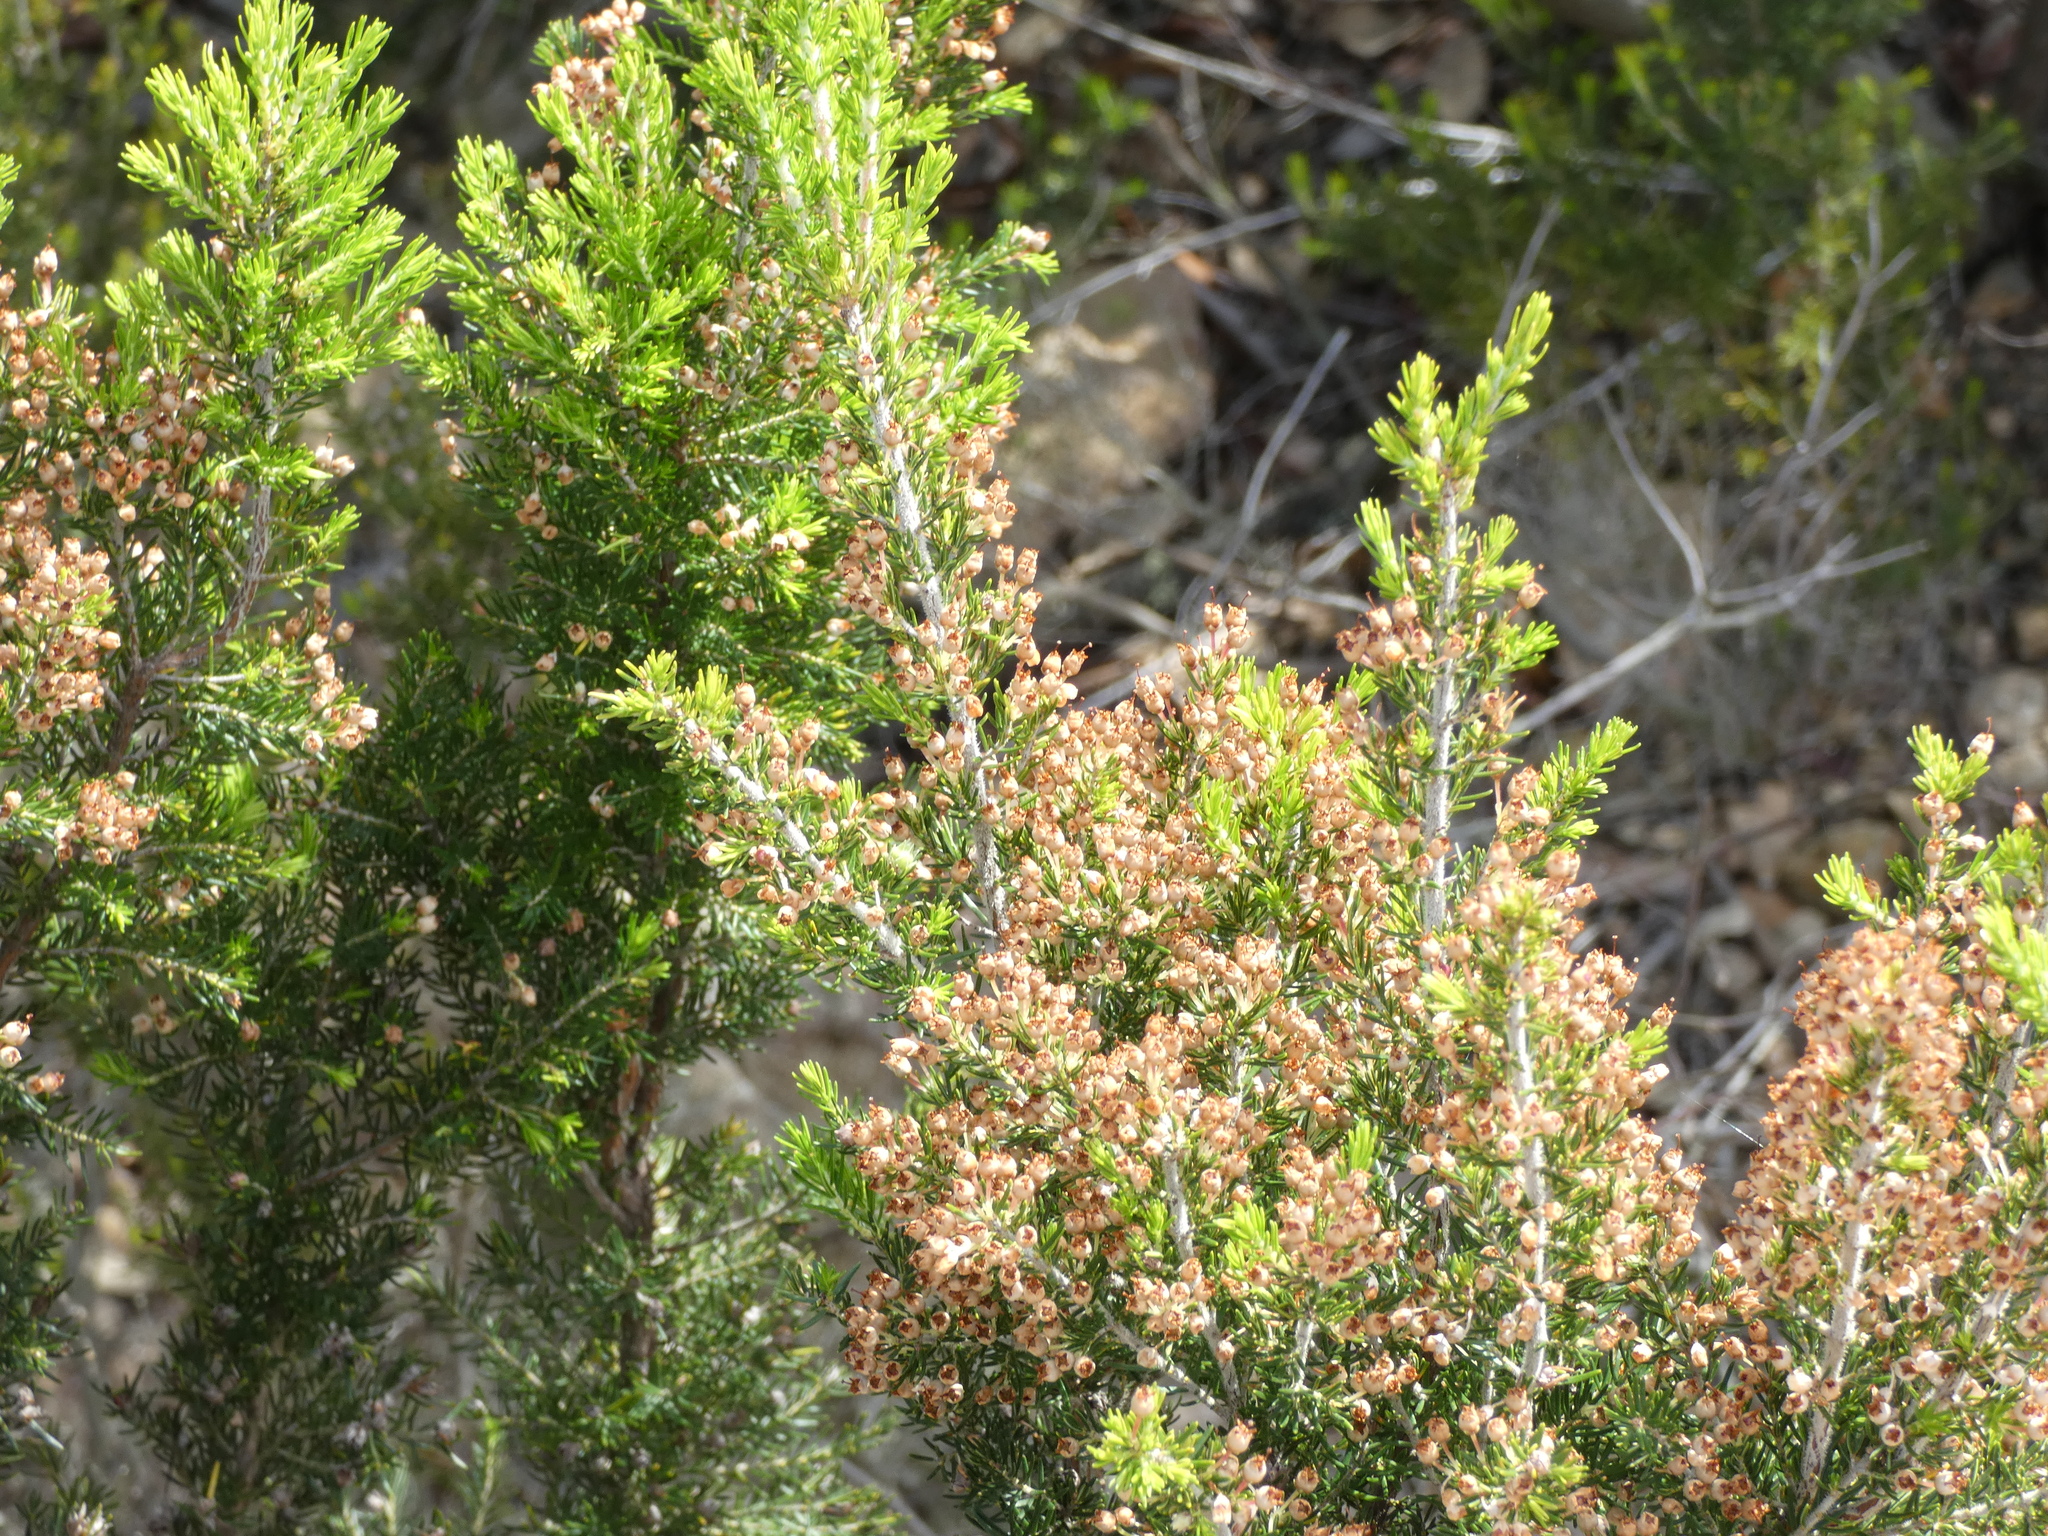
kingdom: Plantae
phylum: Tracheophyta
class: Magnoliopsida
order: Ericales
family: Ericaceae
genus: Erica
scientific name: Erica arborea
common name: Tree heath
